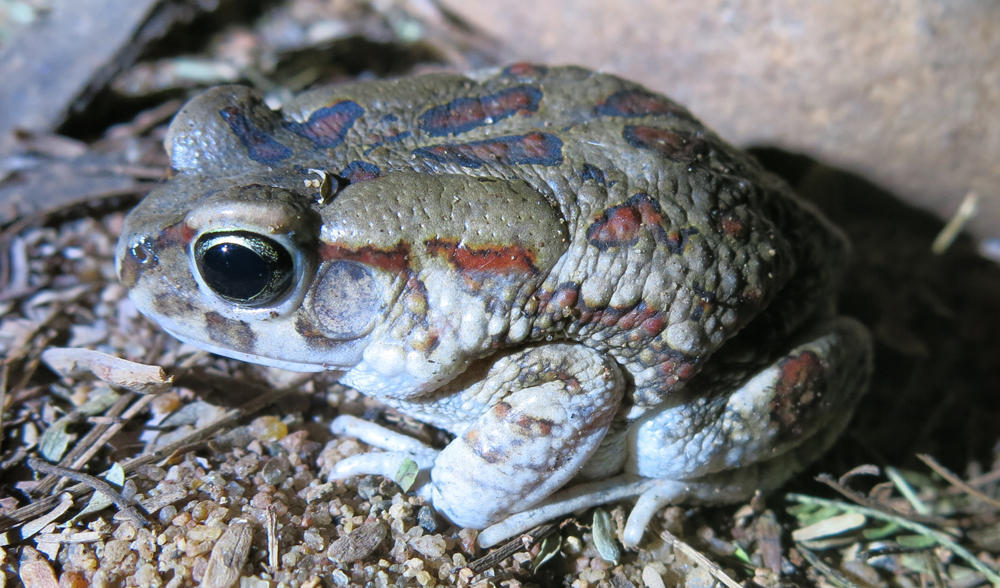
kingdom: Animalia
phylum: Chordata
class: Amphibia
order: Anura
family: Bufonidae
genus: Sclerophrys
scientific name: Sclerophrys garmani
